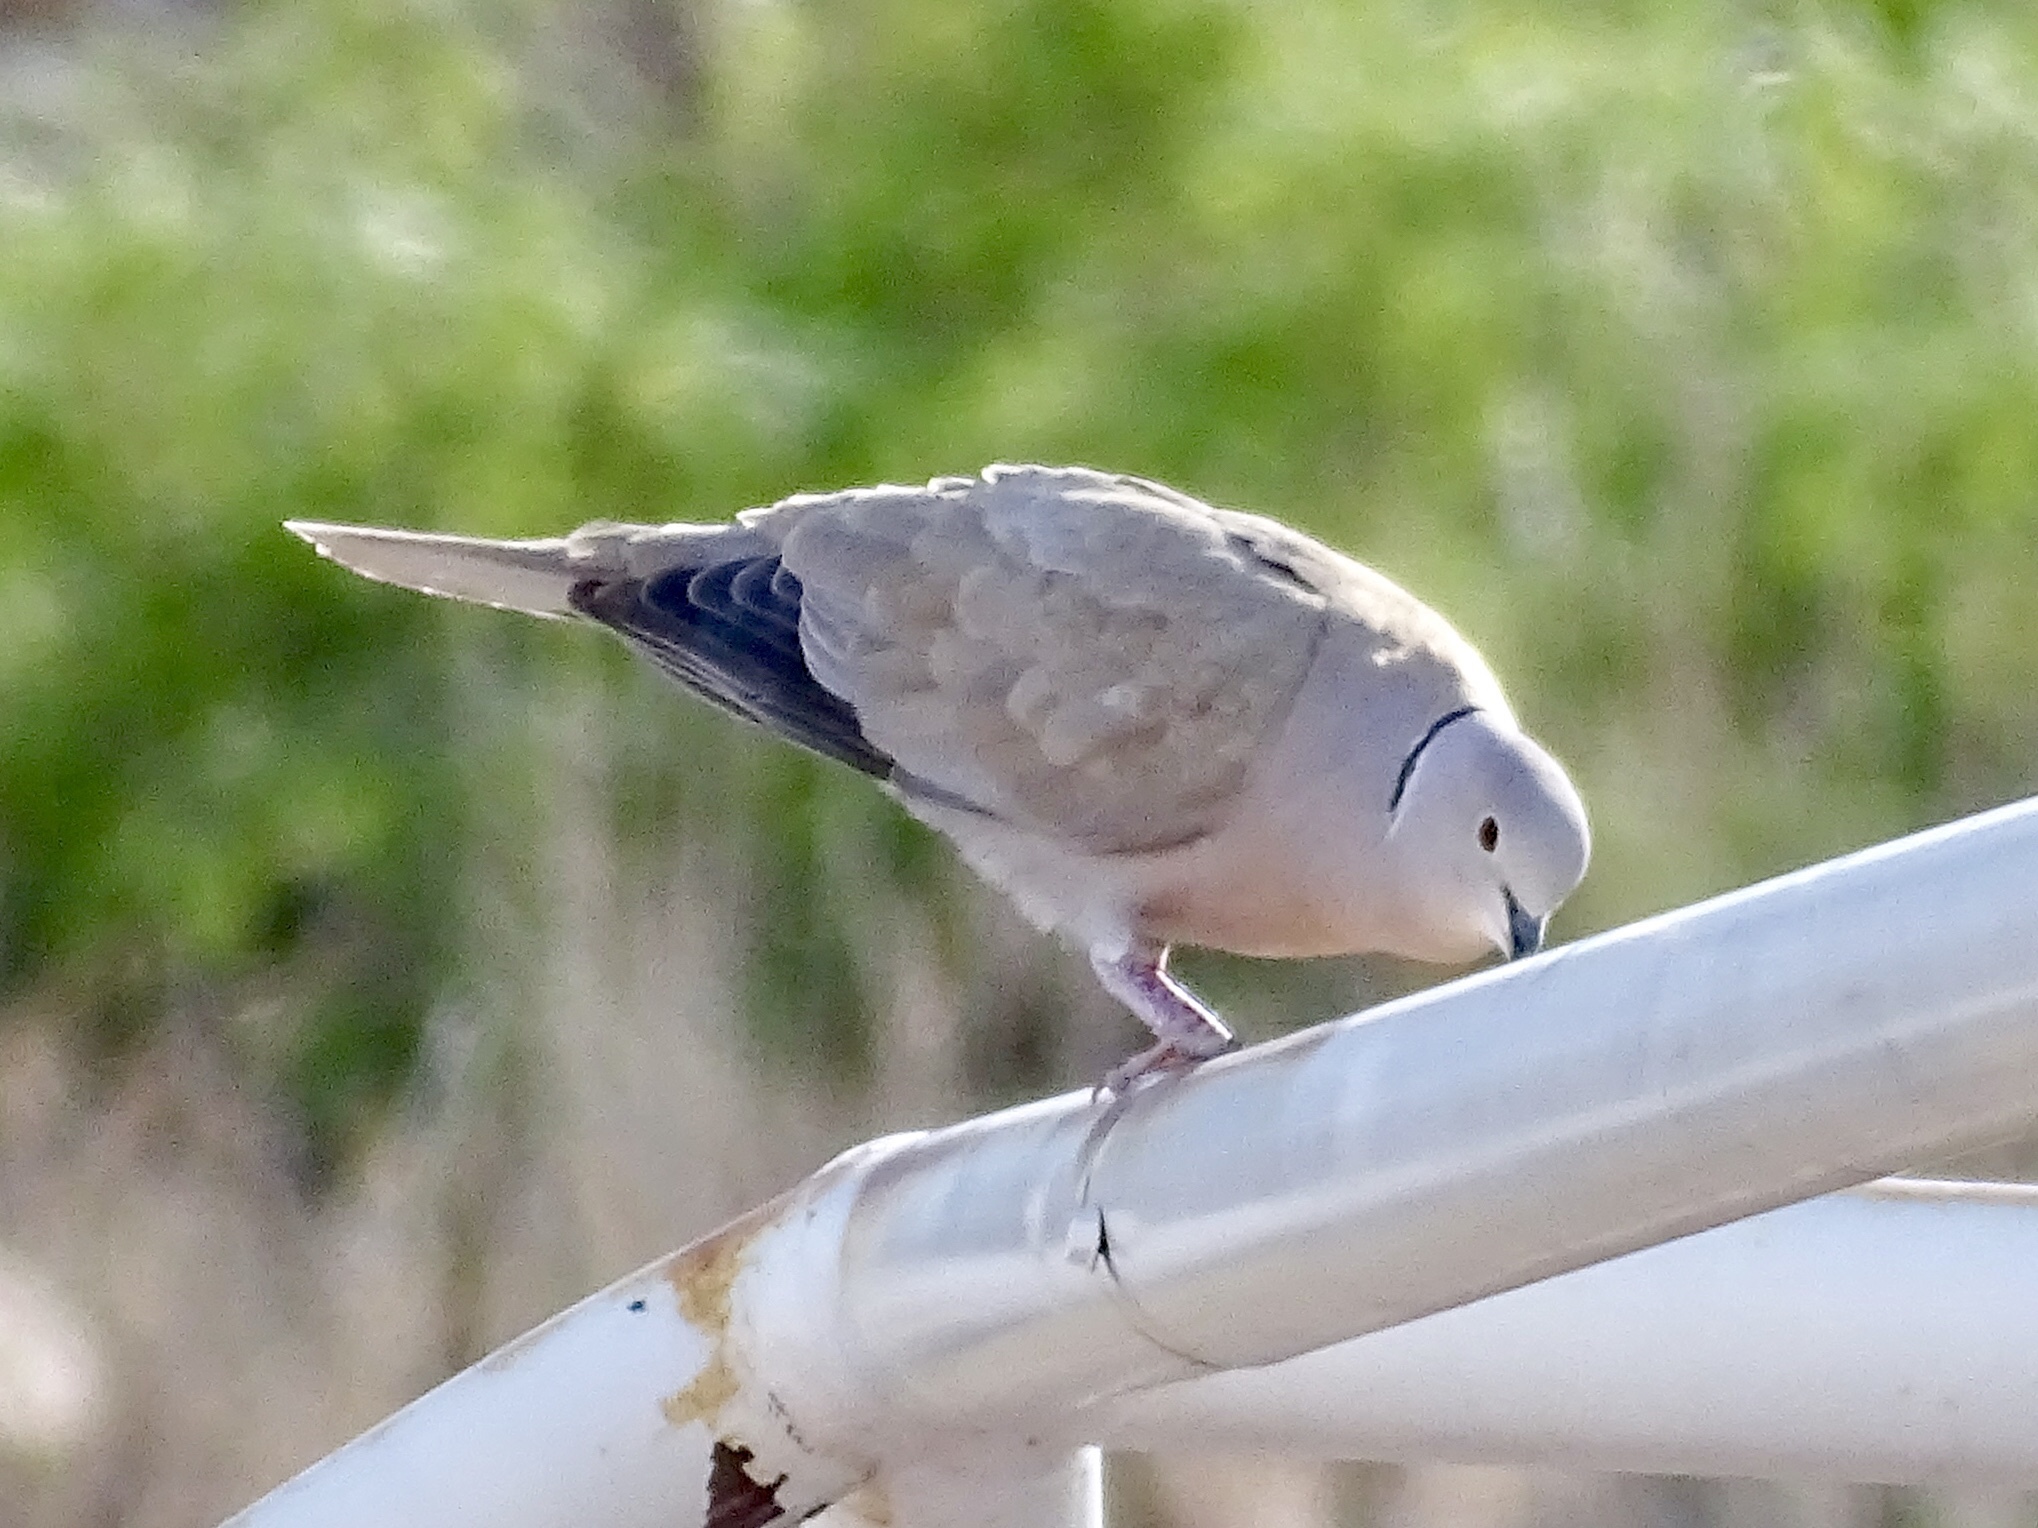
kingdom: Animalia
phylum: Chordata
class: Aves
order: Columbiformes
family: Columbidae
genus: Streptopelia
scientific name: Streptopelia decaocto
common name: Eurasian collared dove
